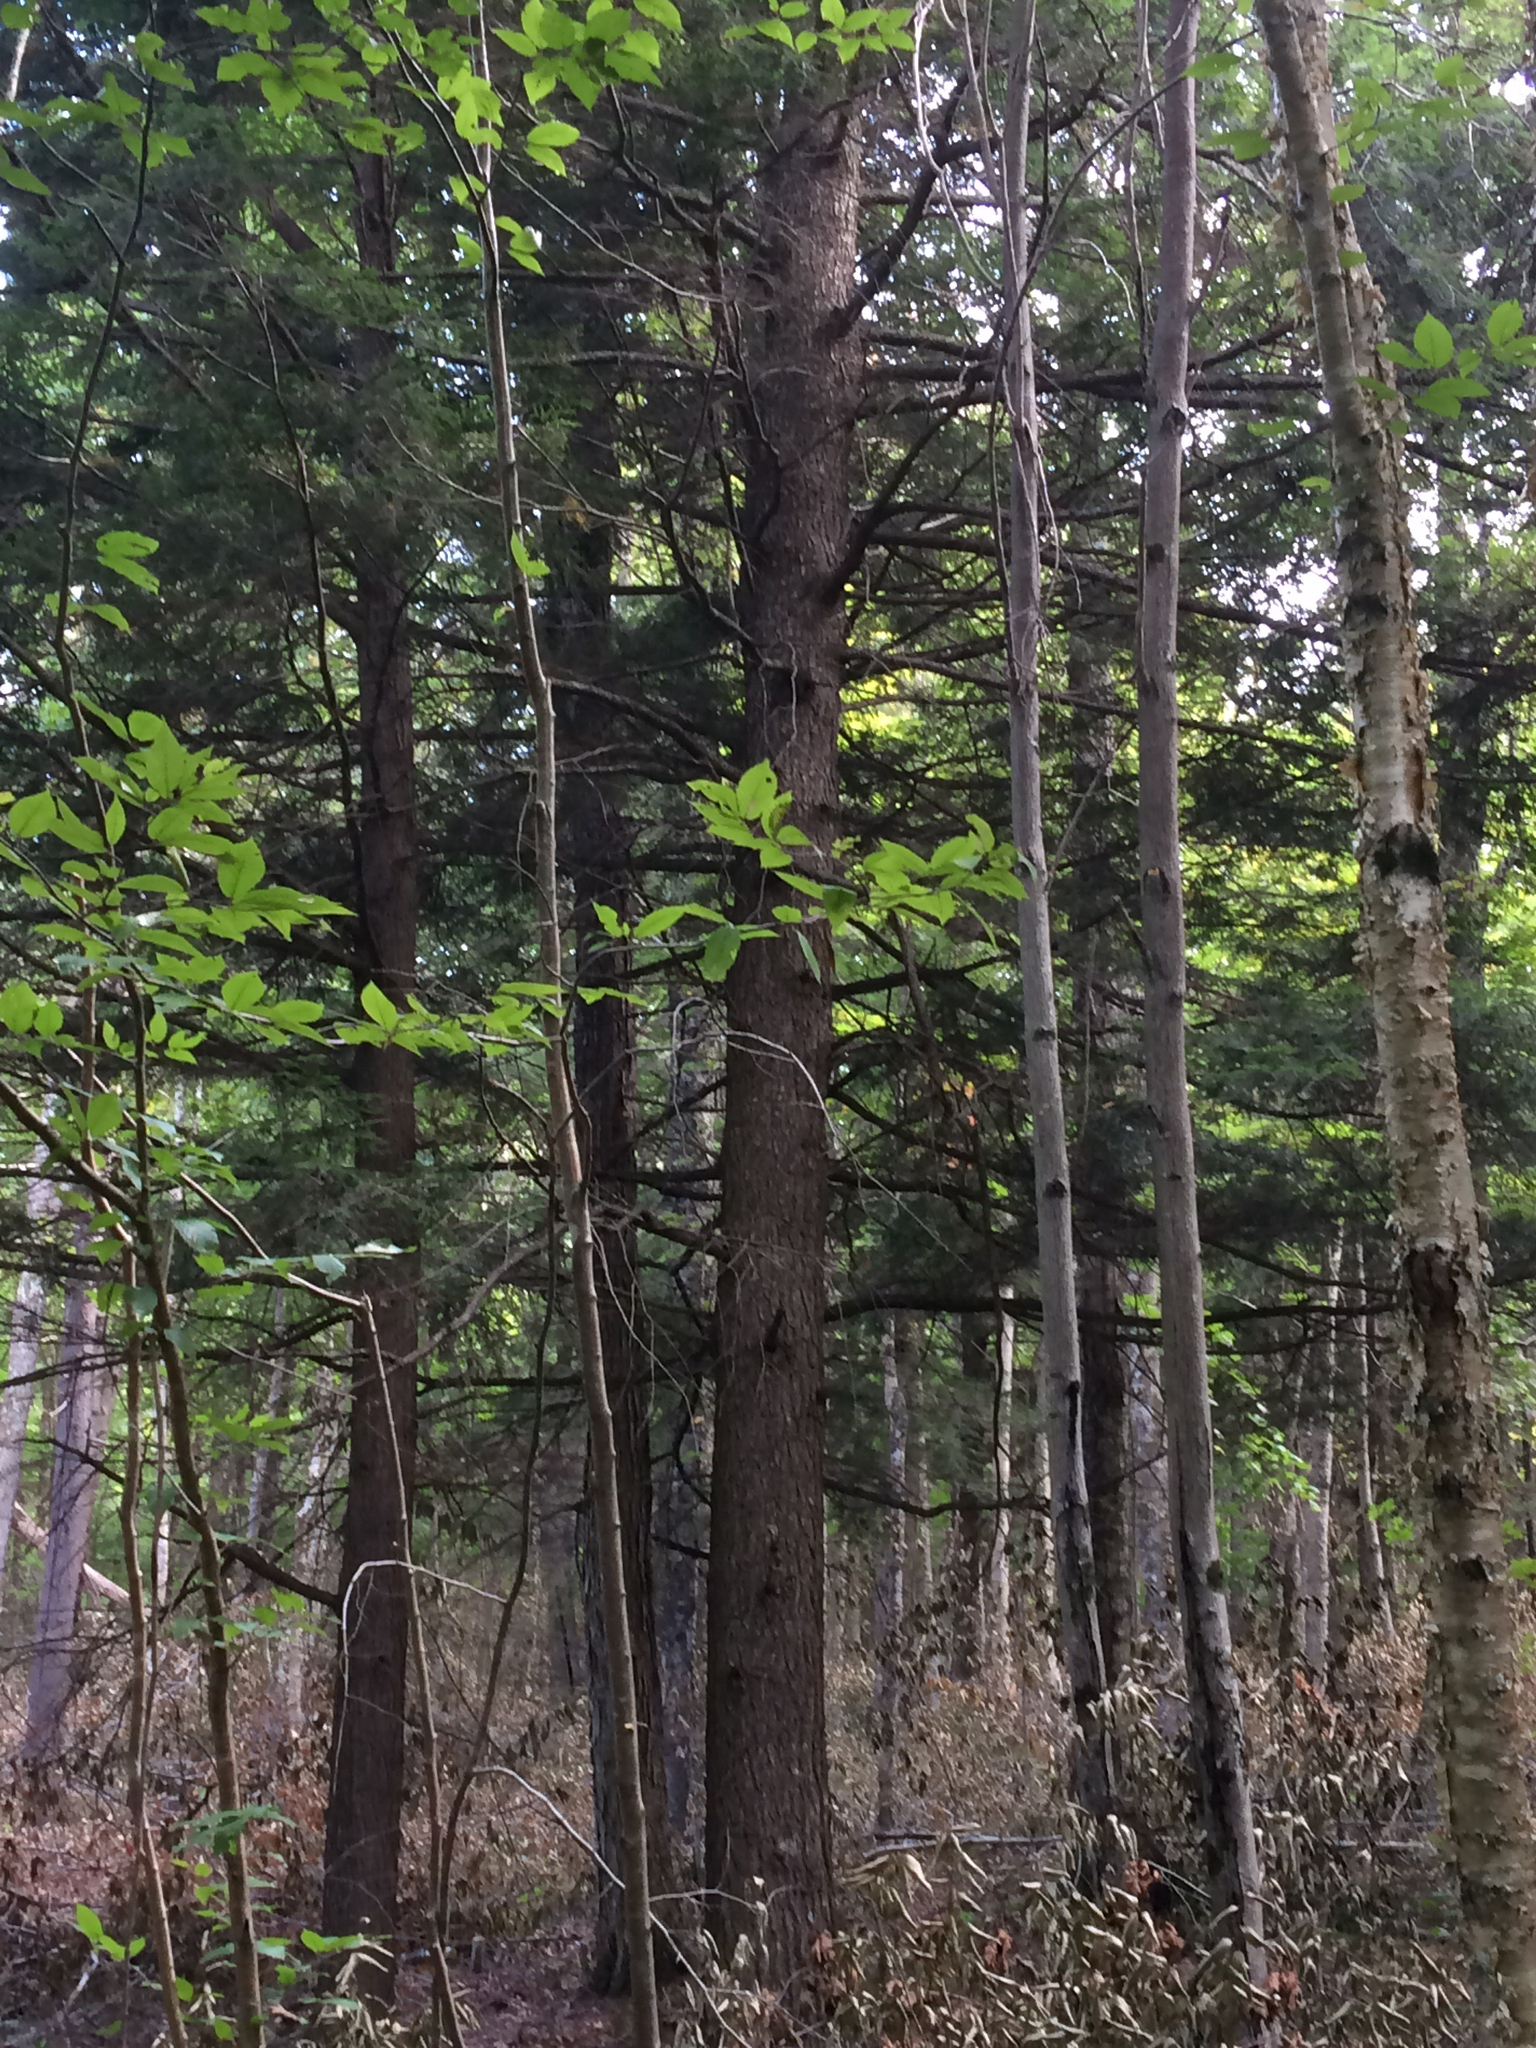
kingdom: Plantae
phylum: Tracheophyta
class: Pinopsida
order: Pinales
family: Pinaceae
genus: Tsuga
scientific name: Tsuga canadensis
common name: Eastern hemlock
